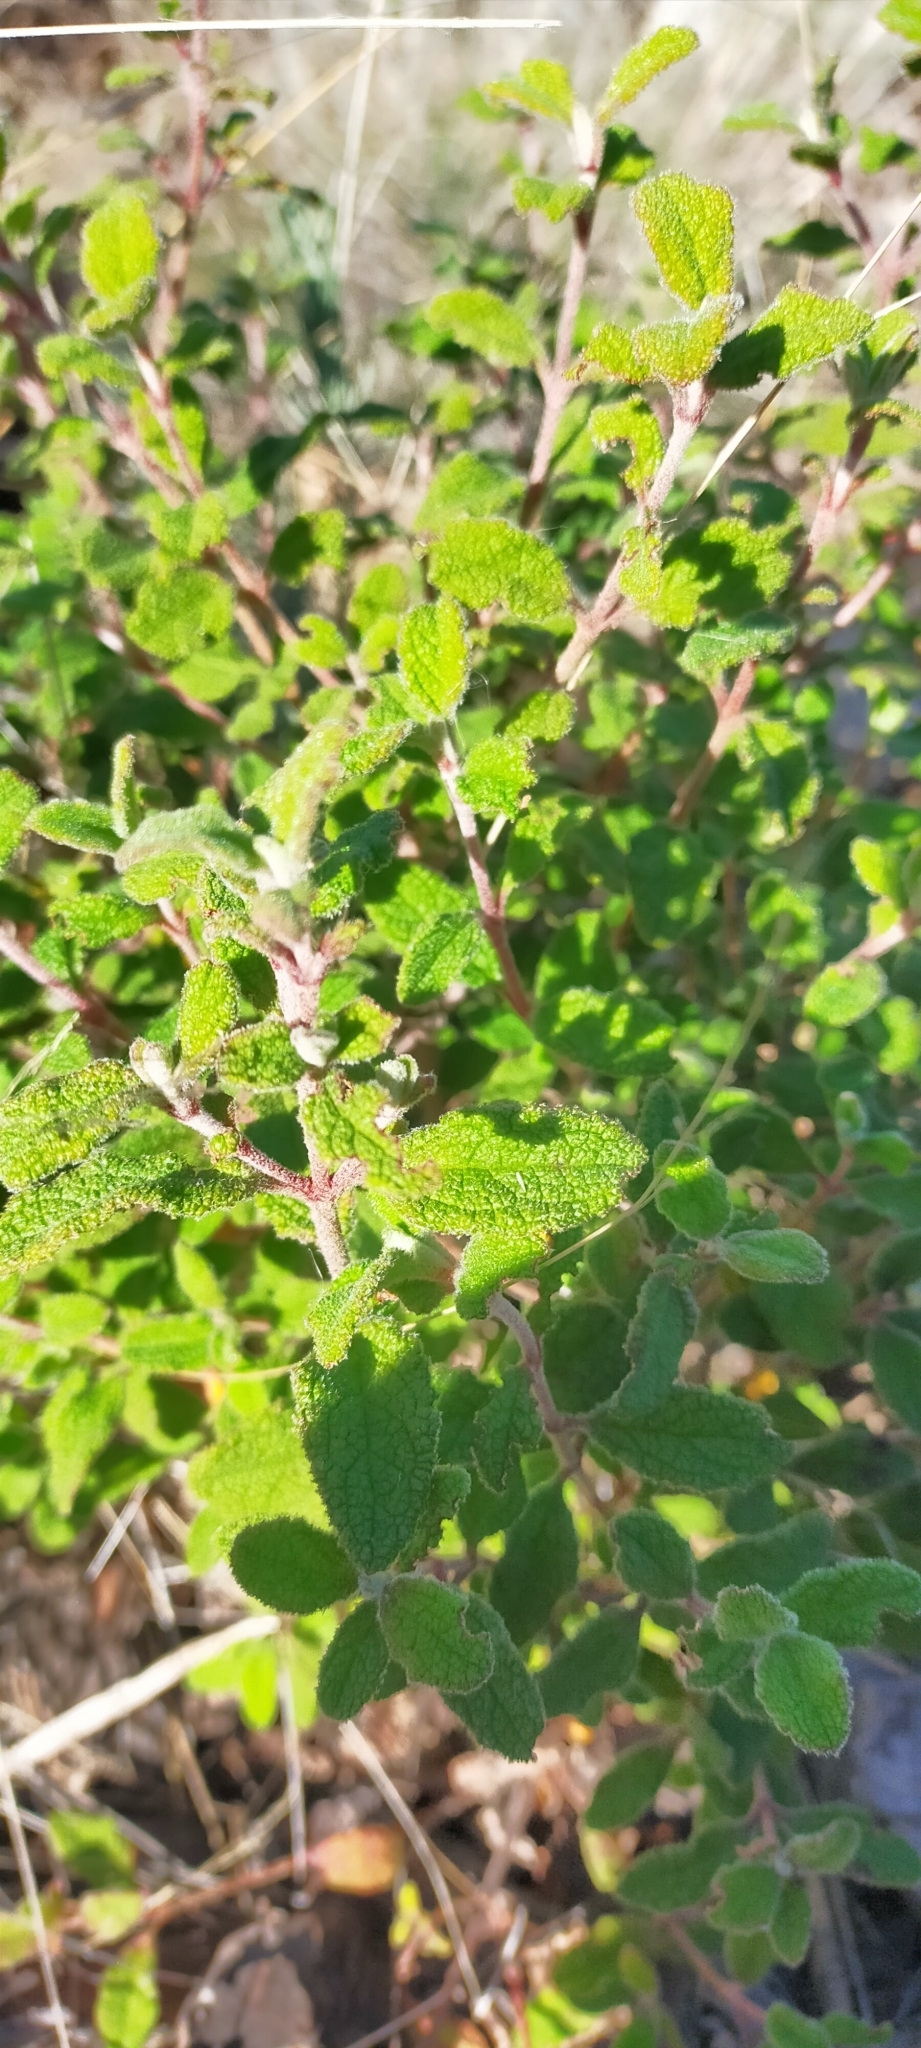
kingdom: Plantae
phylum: Tracheophyta
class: Magnoliopsida
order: Malvales
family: Cistaceae
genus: Cistus
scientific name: Cistus salviifolius
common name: Salvia cistus
